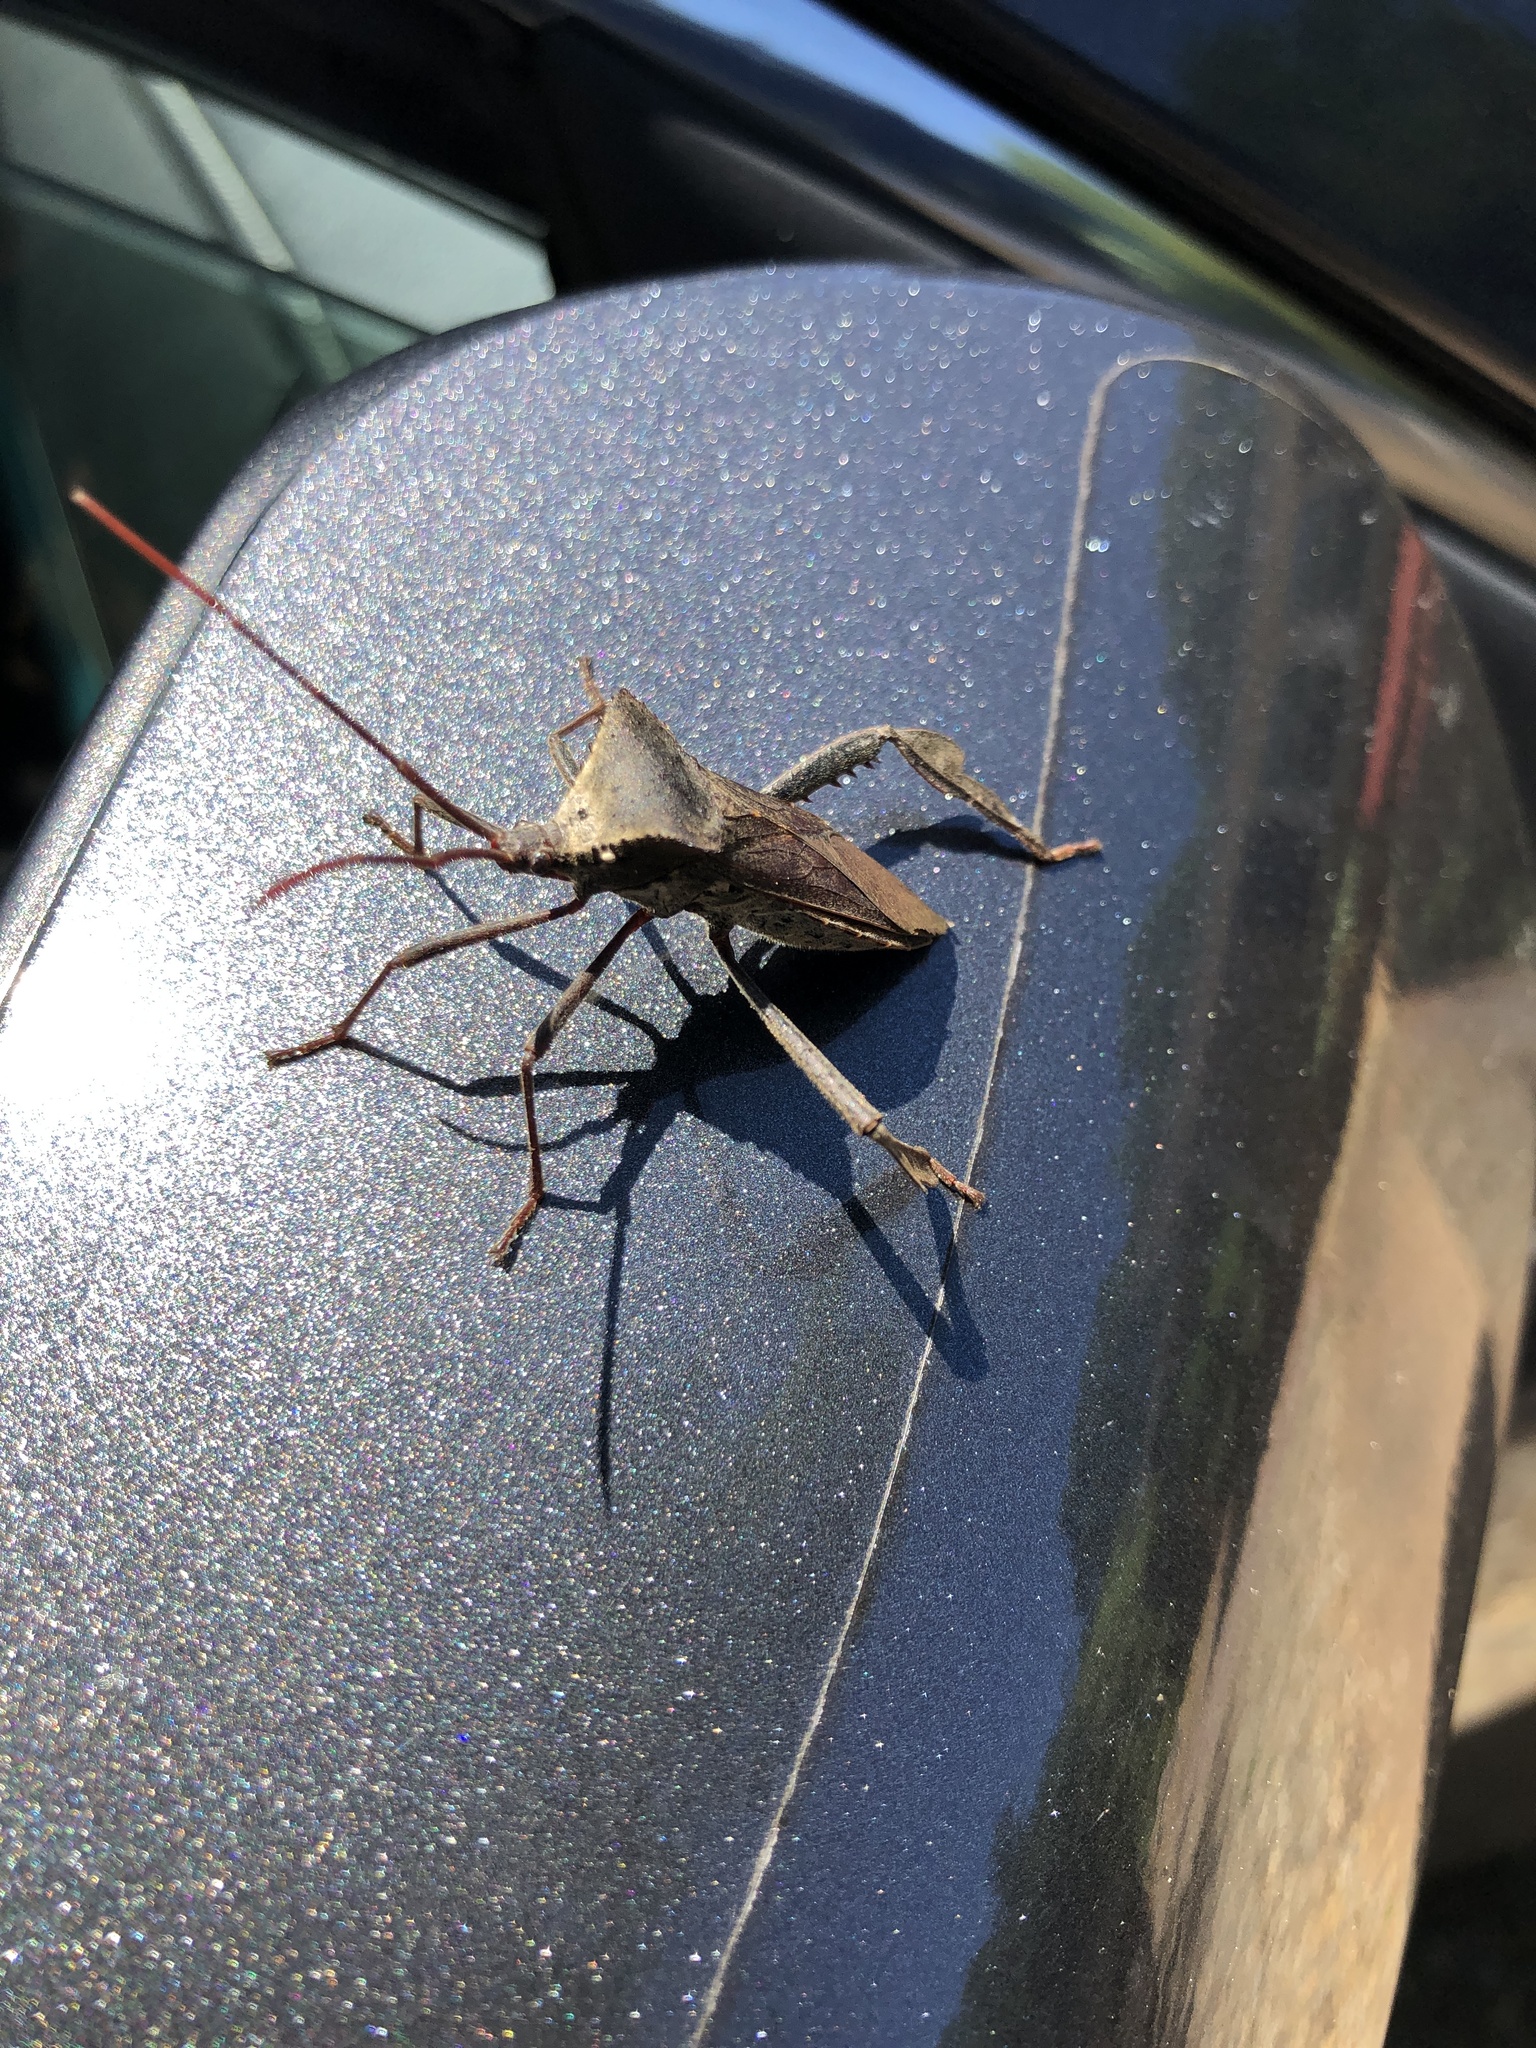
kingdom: Animalia
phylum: Arthropoda
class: Insecta
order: Hemiptera
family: Coreidae
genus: Acanthocephala
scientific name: Acanthocephala declivis
